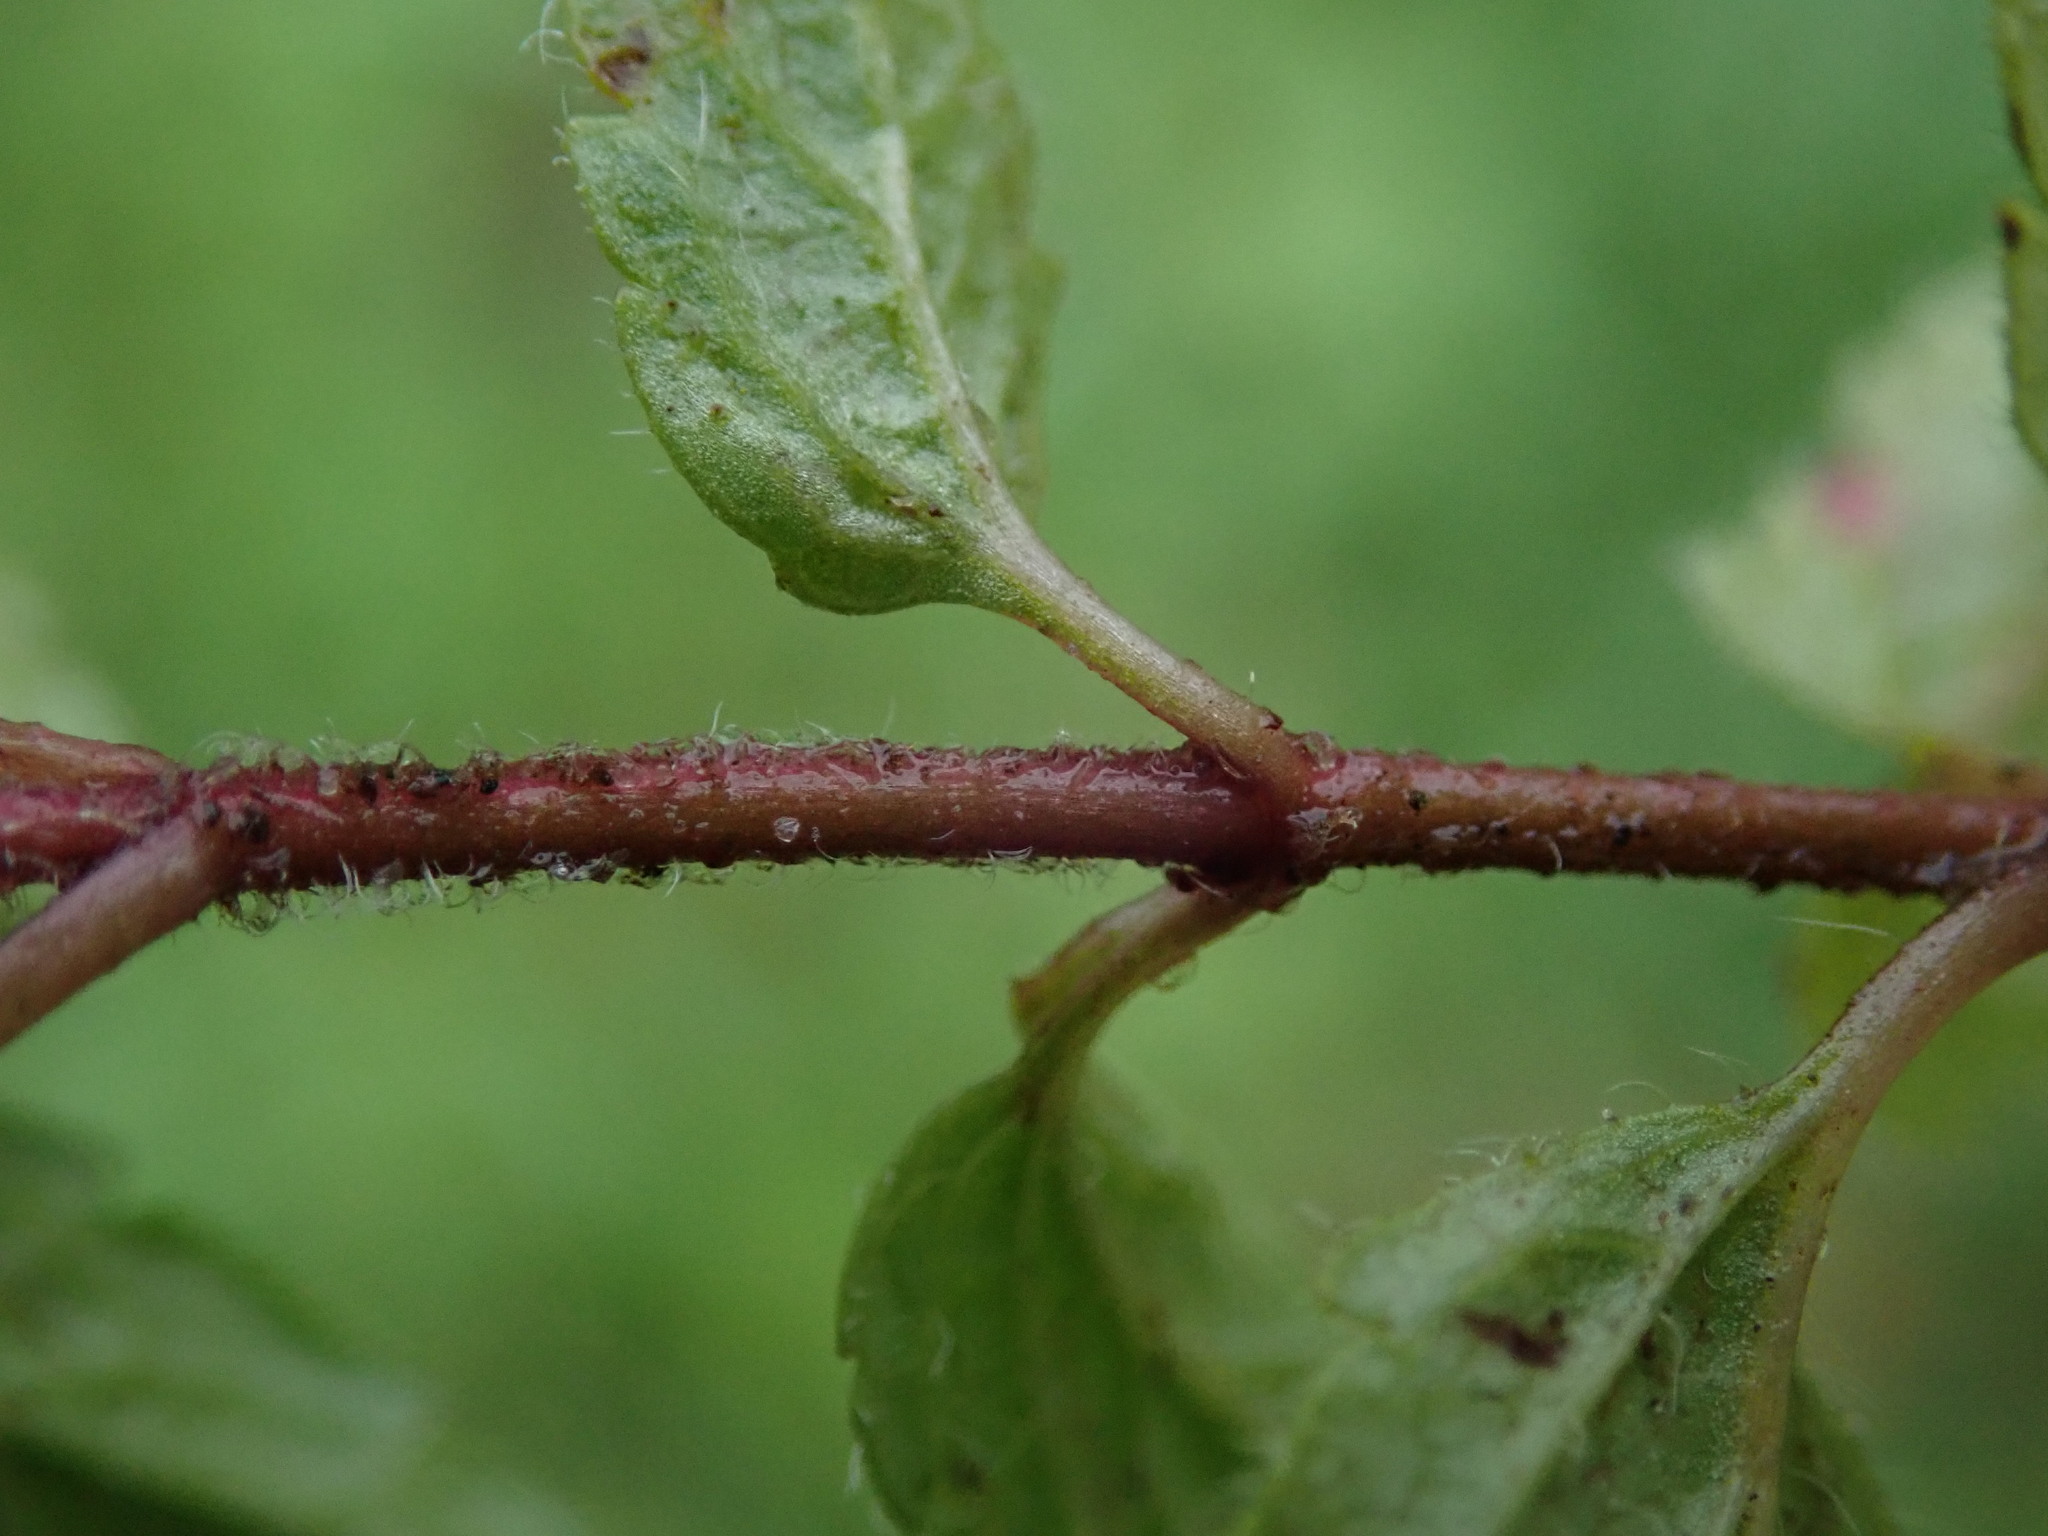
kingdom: Plantae
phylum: Tracheophyta
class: Magnoliopsida
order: Lamiales
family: Plantaginaceae
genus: Veronica
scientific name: Veronica chamaedrys
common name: Germander speedwell
